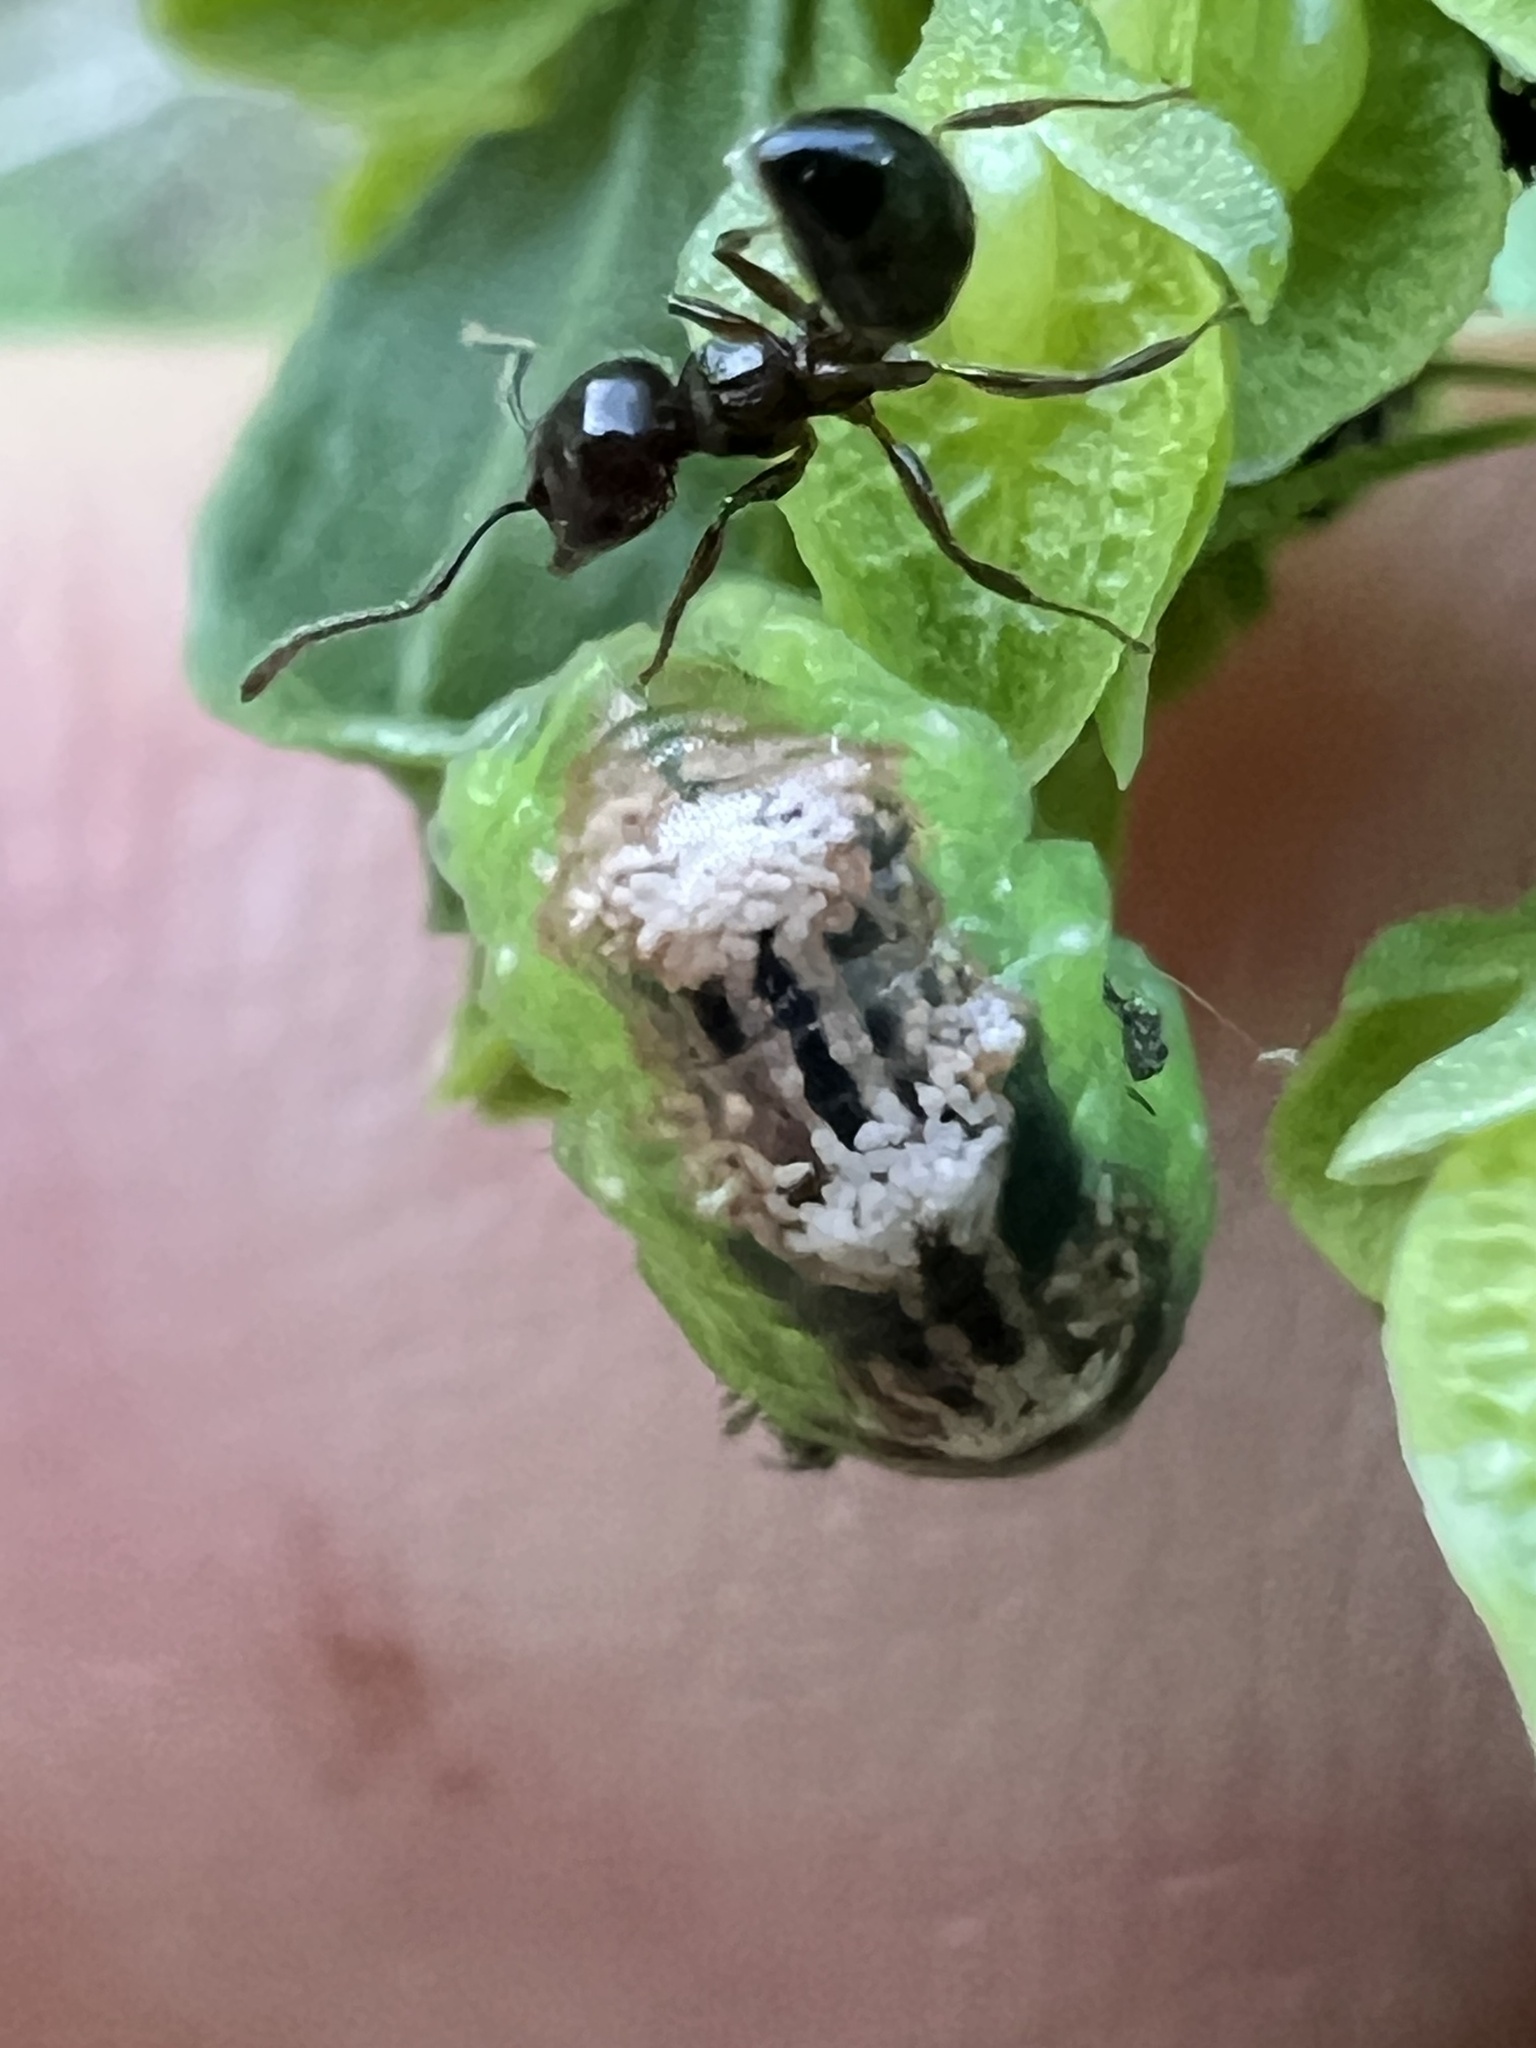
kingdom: Animalia
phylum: Arthropoda
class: Insecta
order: Diptera
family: Syrphidae
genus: Eupeodes
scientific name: Eupeodes pomus
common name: Short-tailed aphideater
